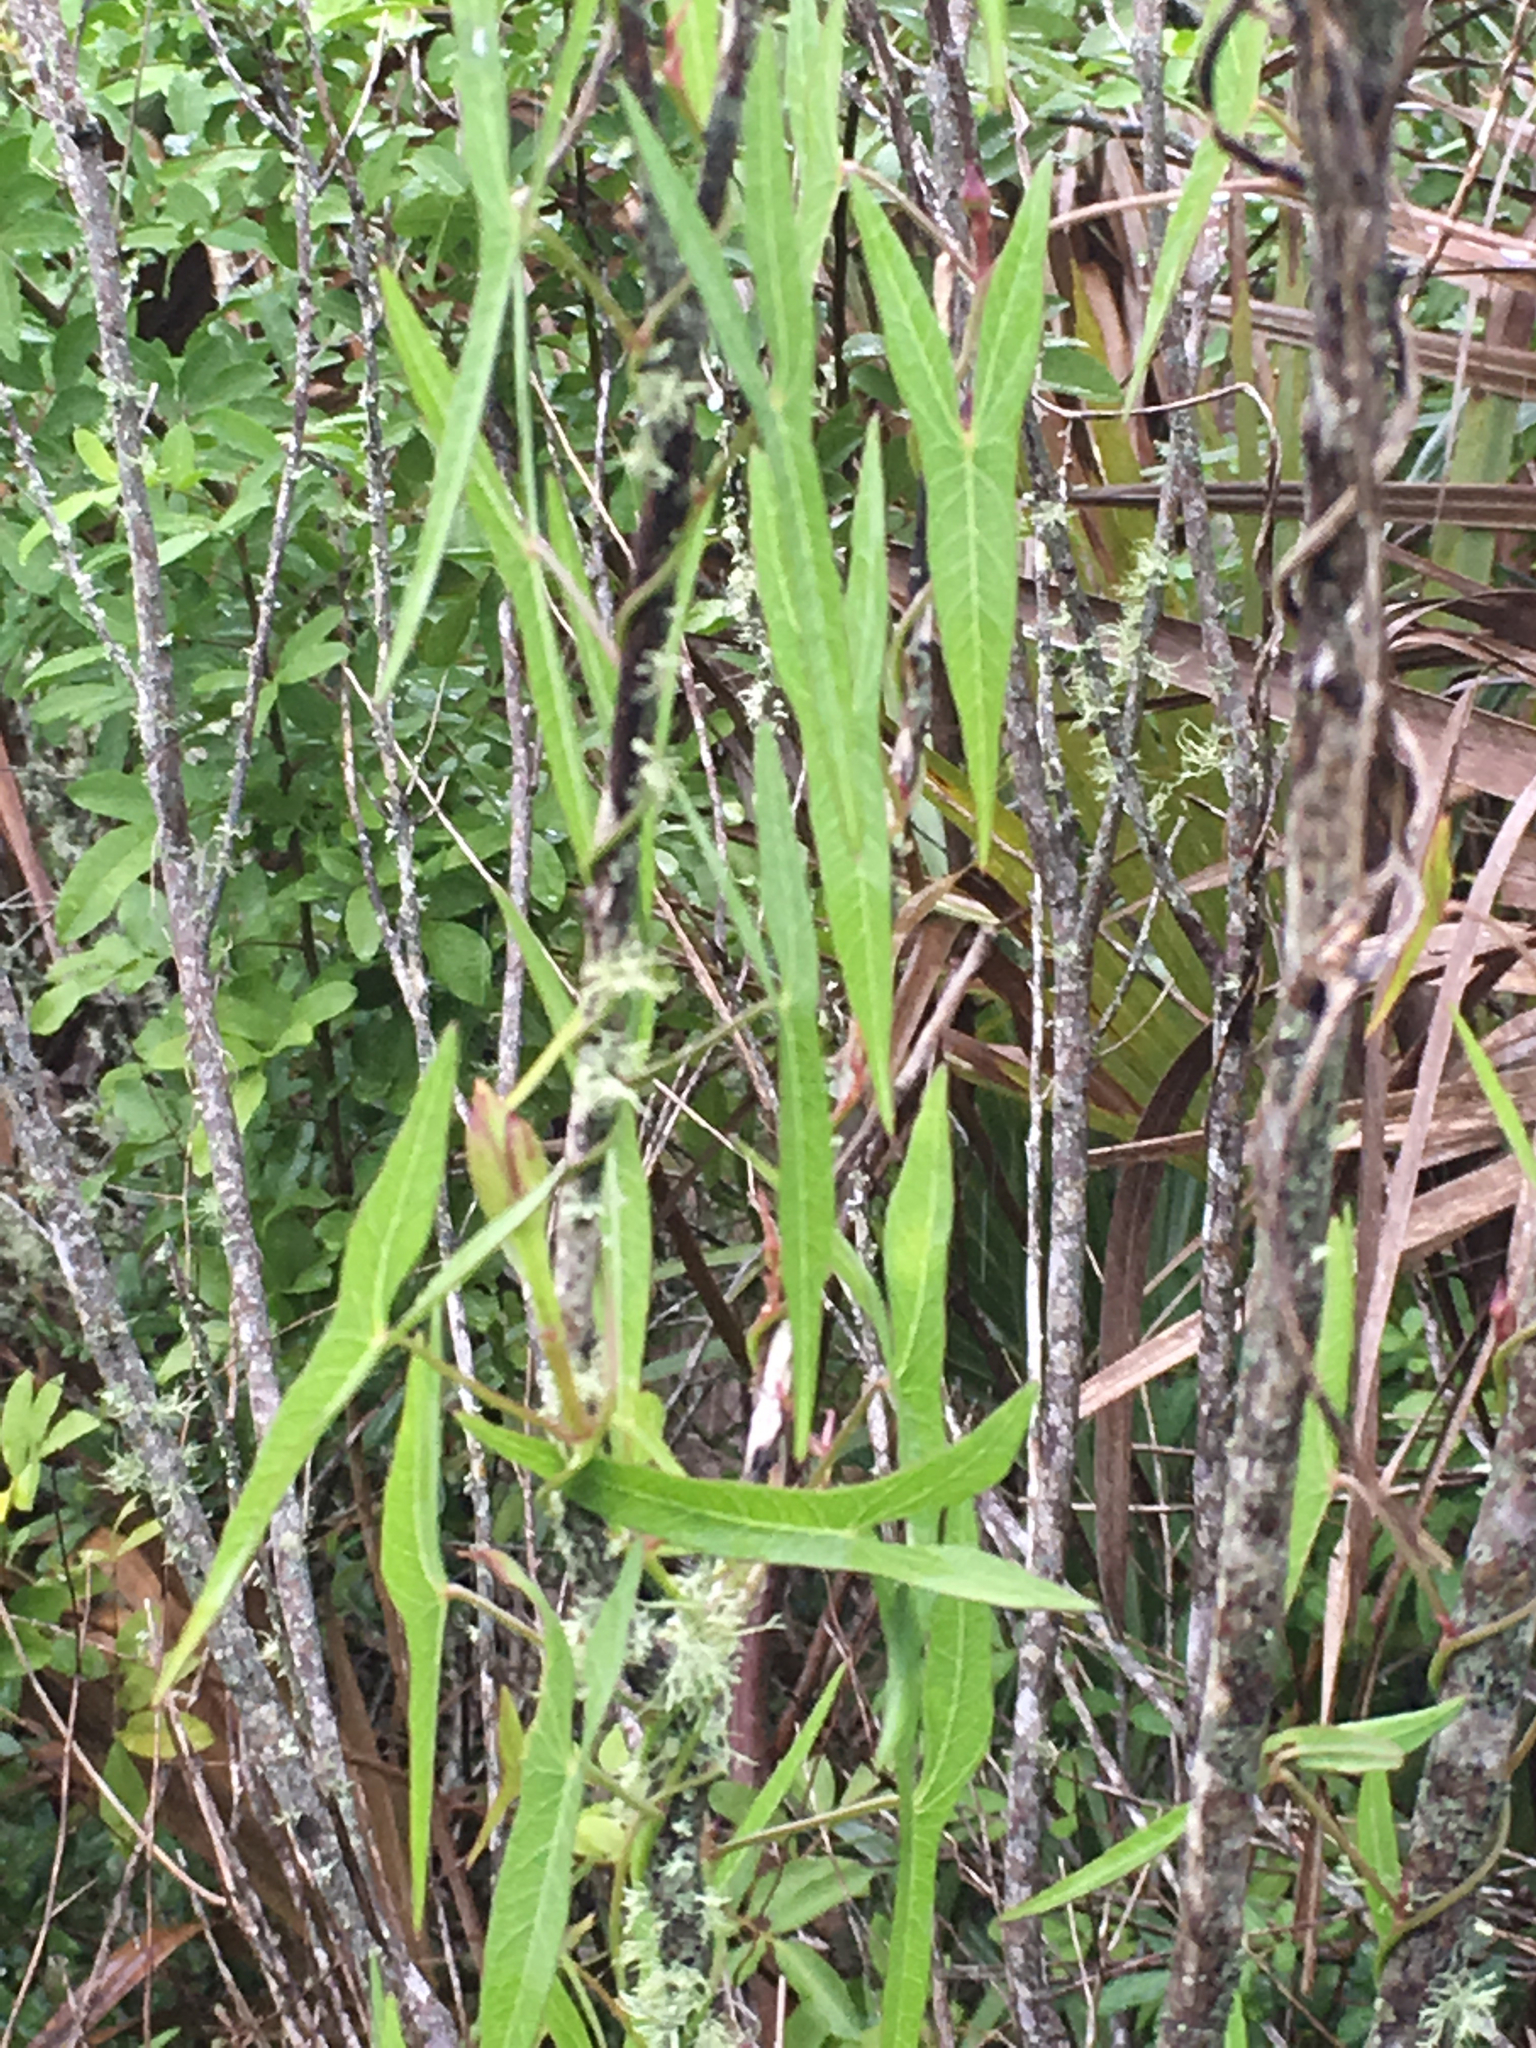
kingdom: Plantae
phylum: Tracheophyta
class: Magnoliopsida
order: Solanales
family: Convolvulaceae
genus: Ipomoea
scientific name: Ipomoea sagittata
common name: Saltmarsh morning glory
